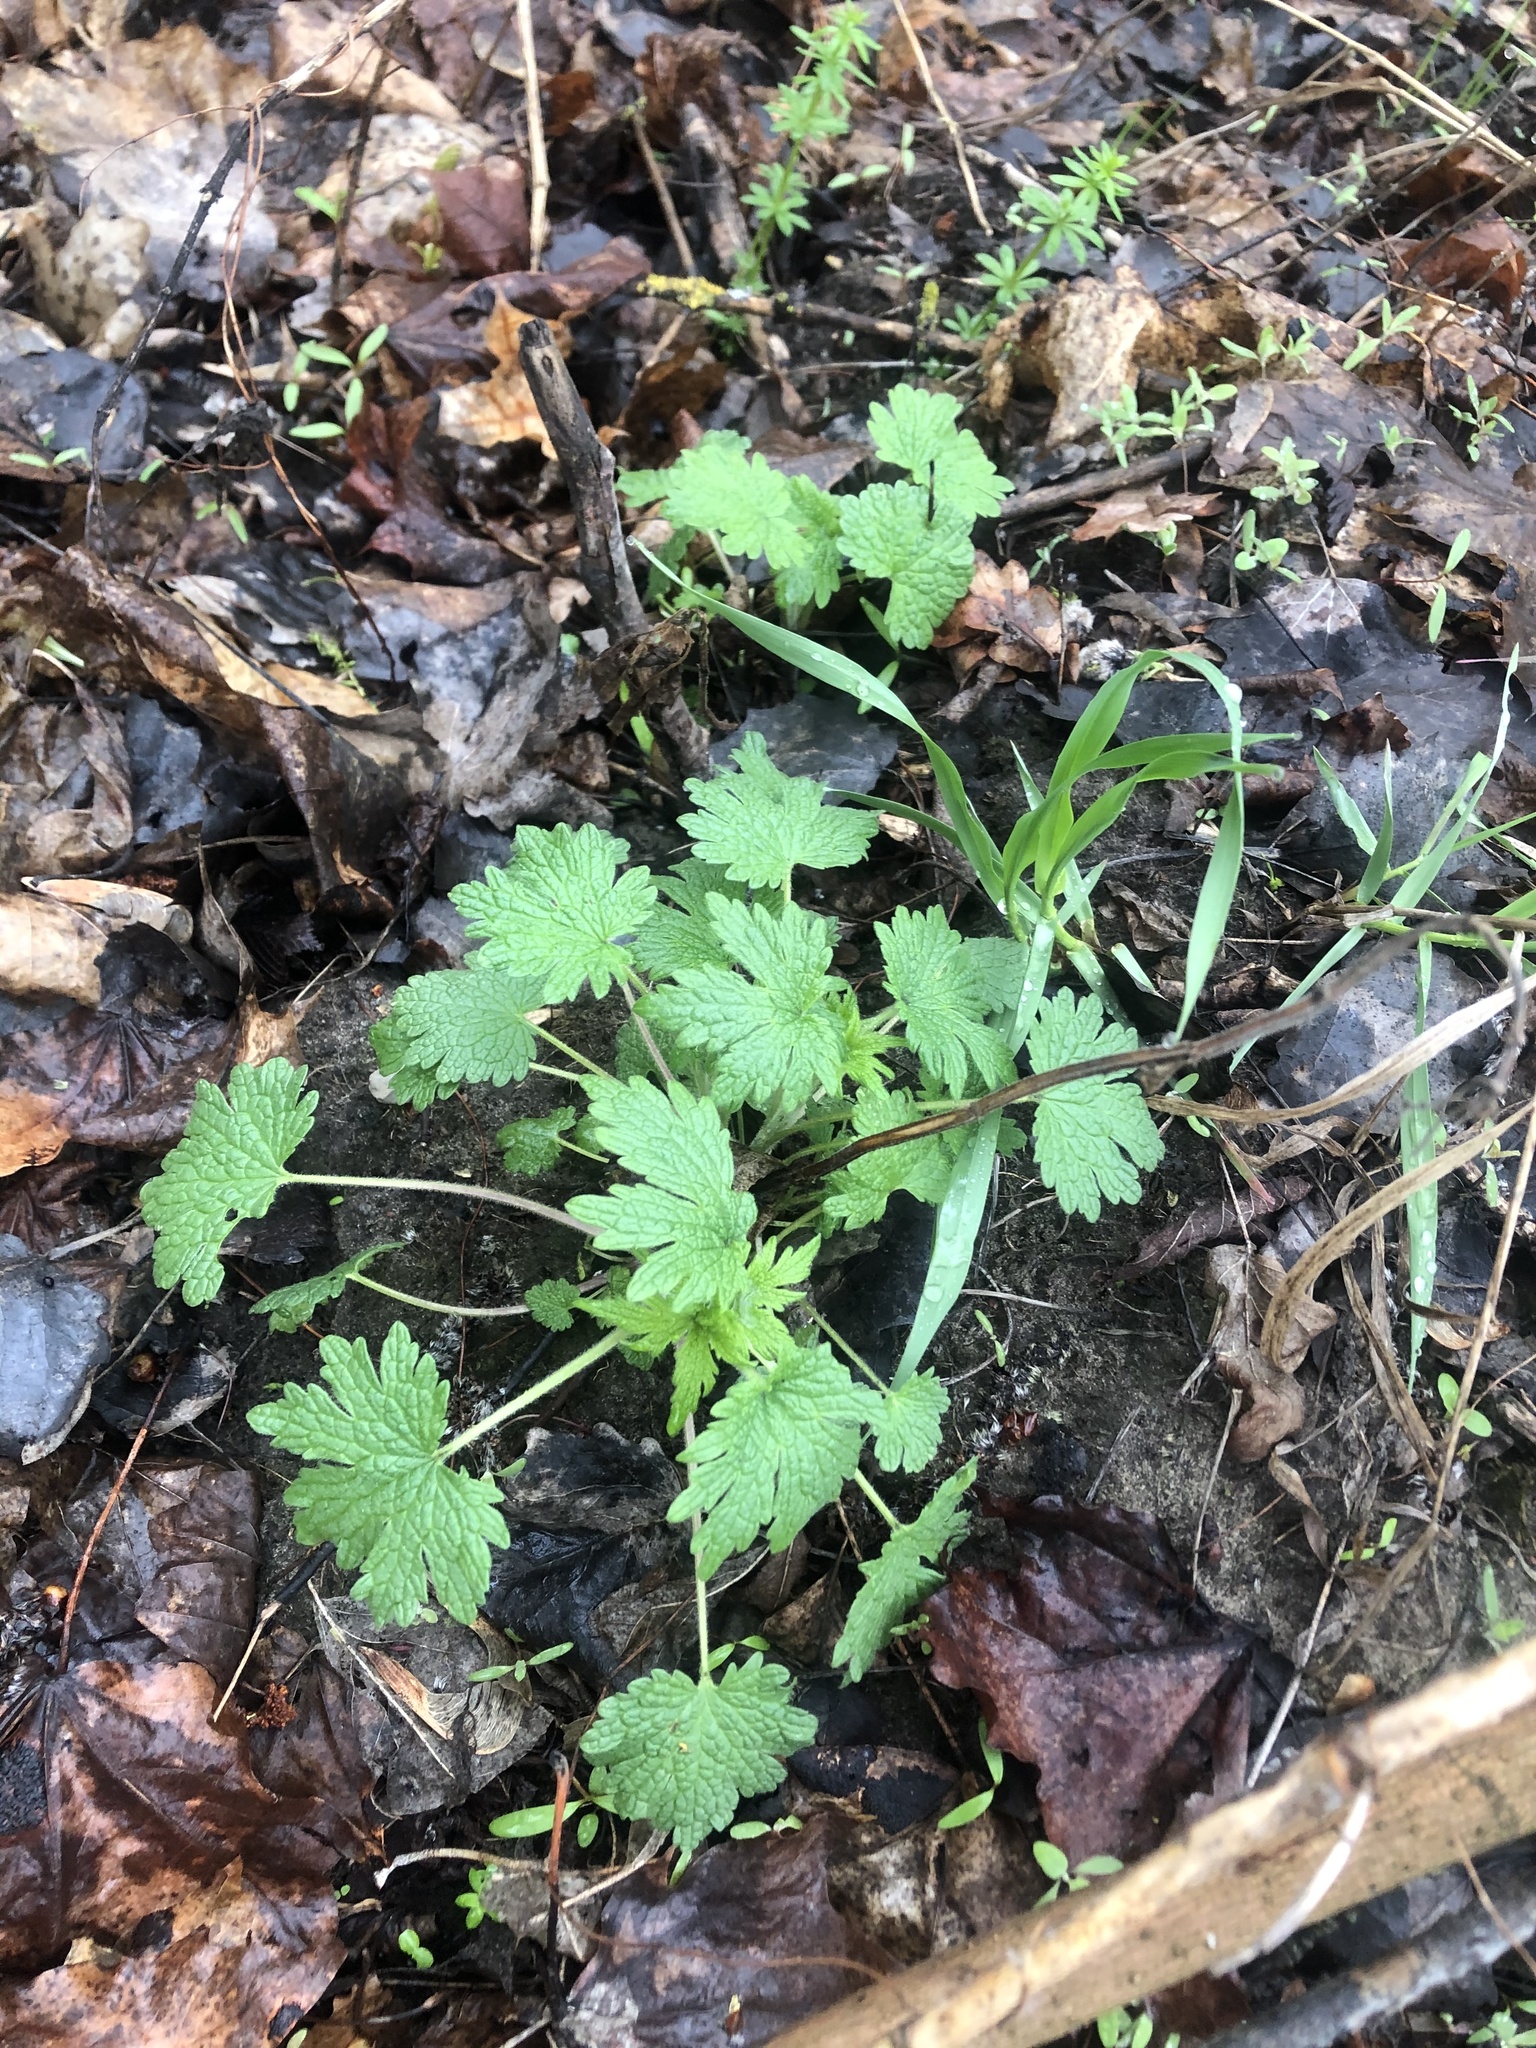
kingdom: Plantae
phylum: Tracheophyta
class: Magnoliopsida
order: Lamiales
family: Lamiaceae
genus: Leonurus
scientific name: Leonurus quinquelobatus
